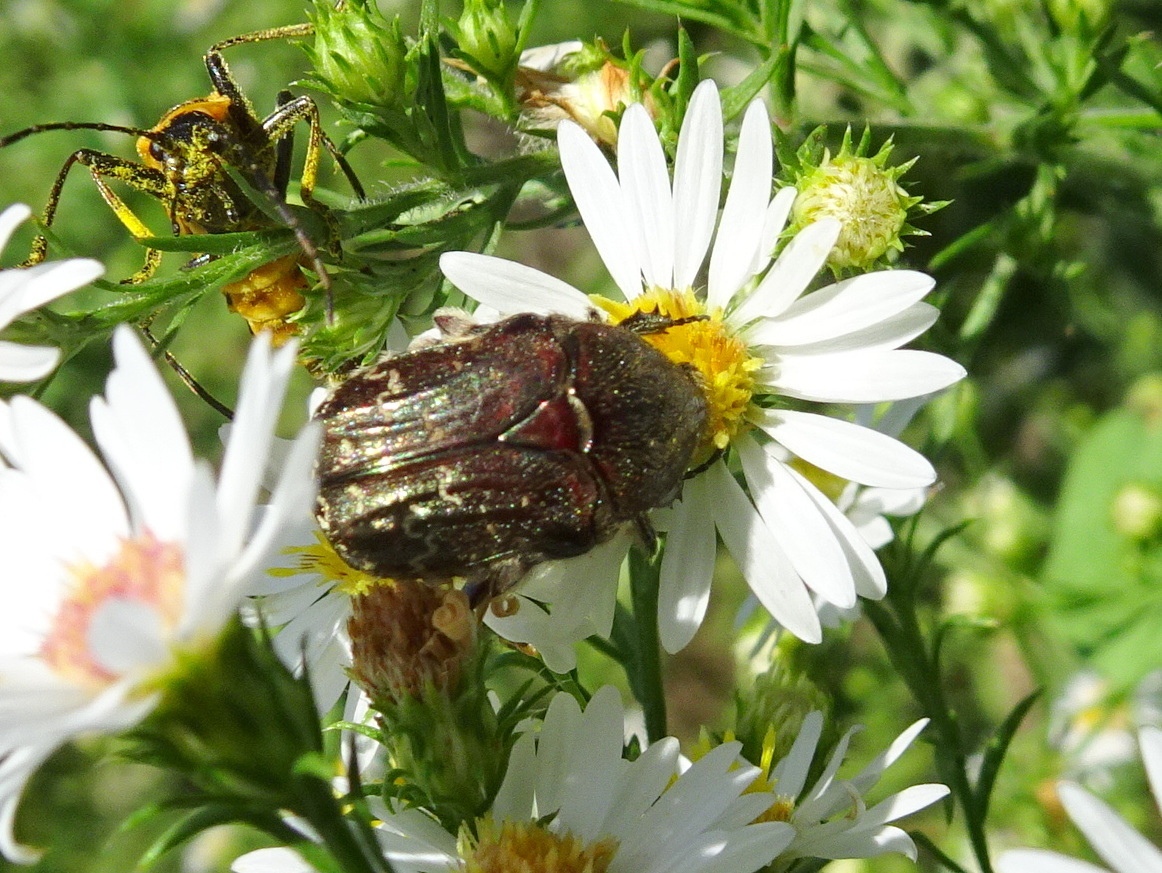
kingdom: Animalia
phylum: Arthropoda
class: Insecta
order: Coleoptera
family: Scarabaeidae
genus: Euphoria
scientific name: Euphoria sepulcralis
